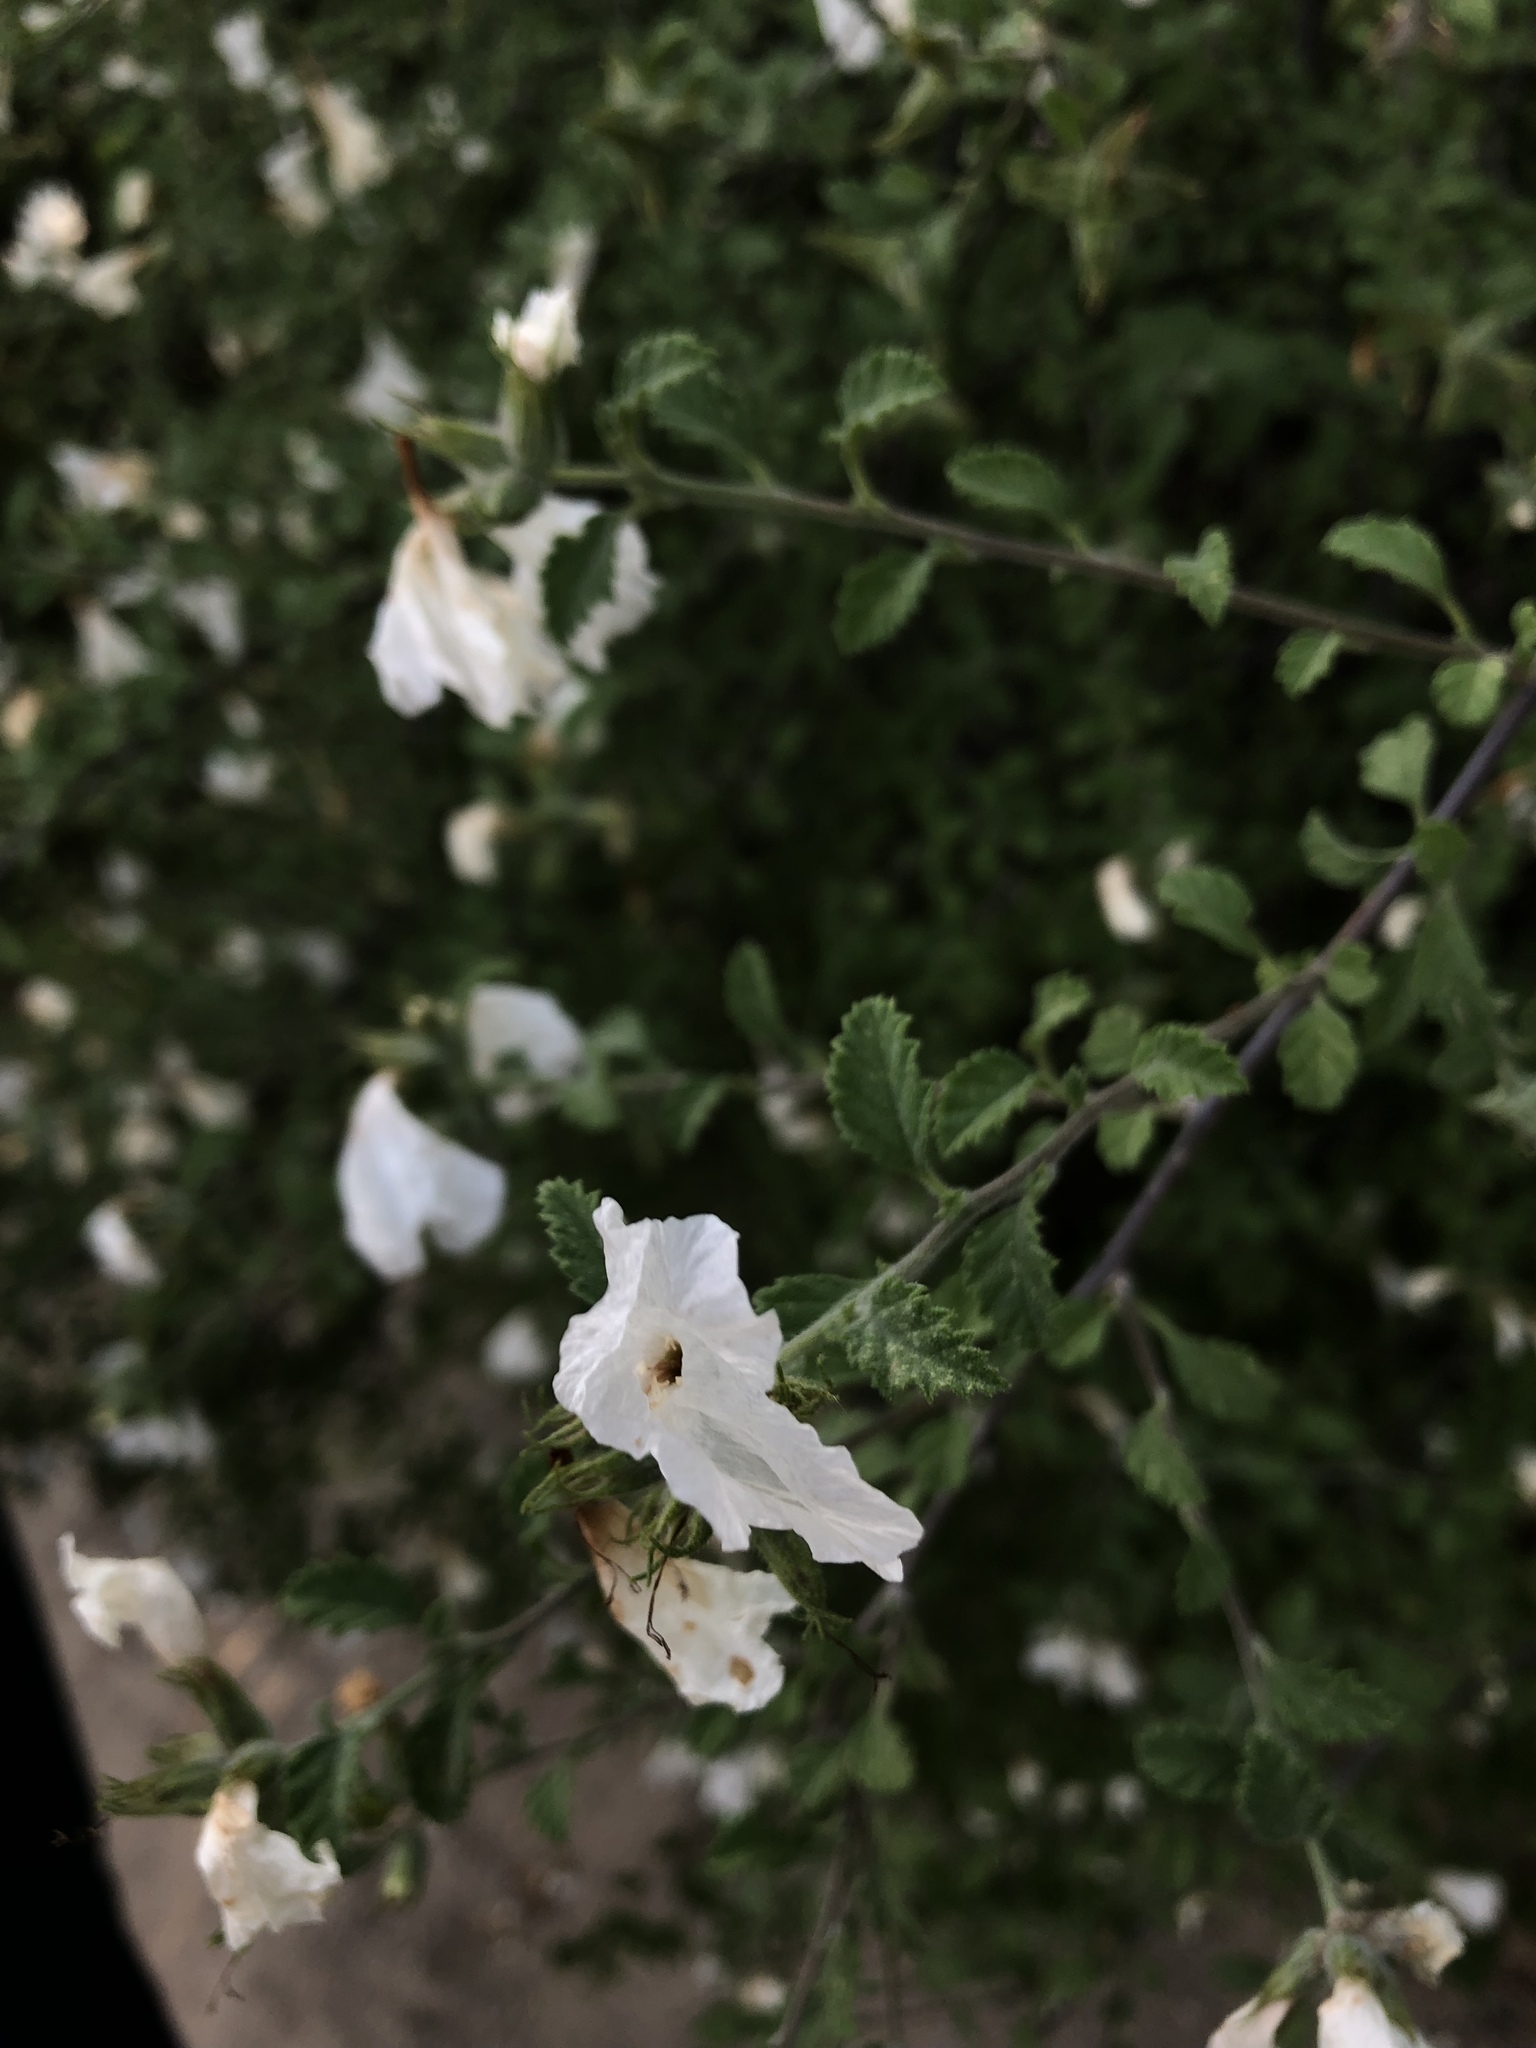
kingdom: Plantae
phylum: Tracheophyta
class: Magnoliopsida
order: Boraginales
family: Cordiaceae
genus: Cordia
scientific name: Cordia parvifolia
